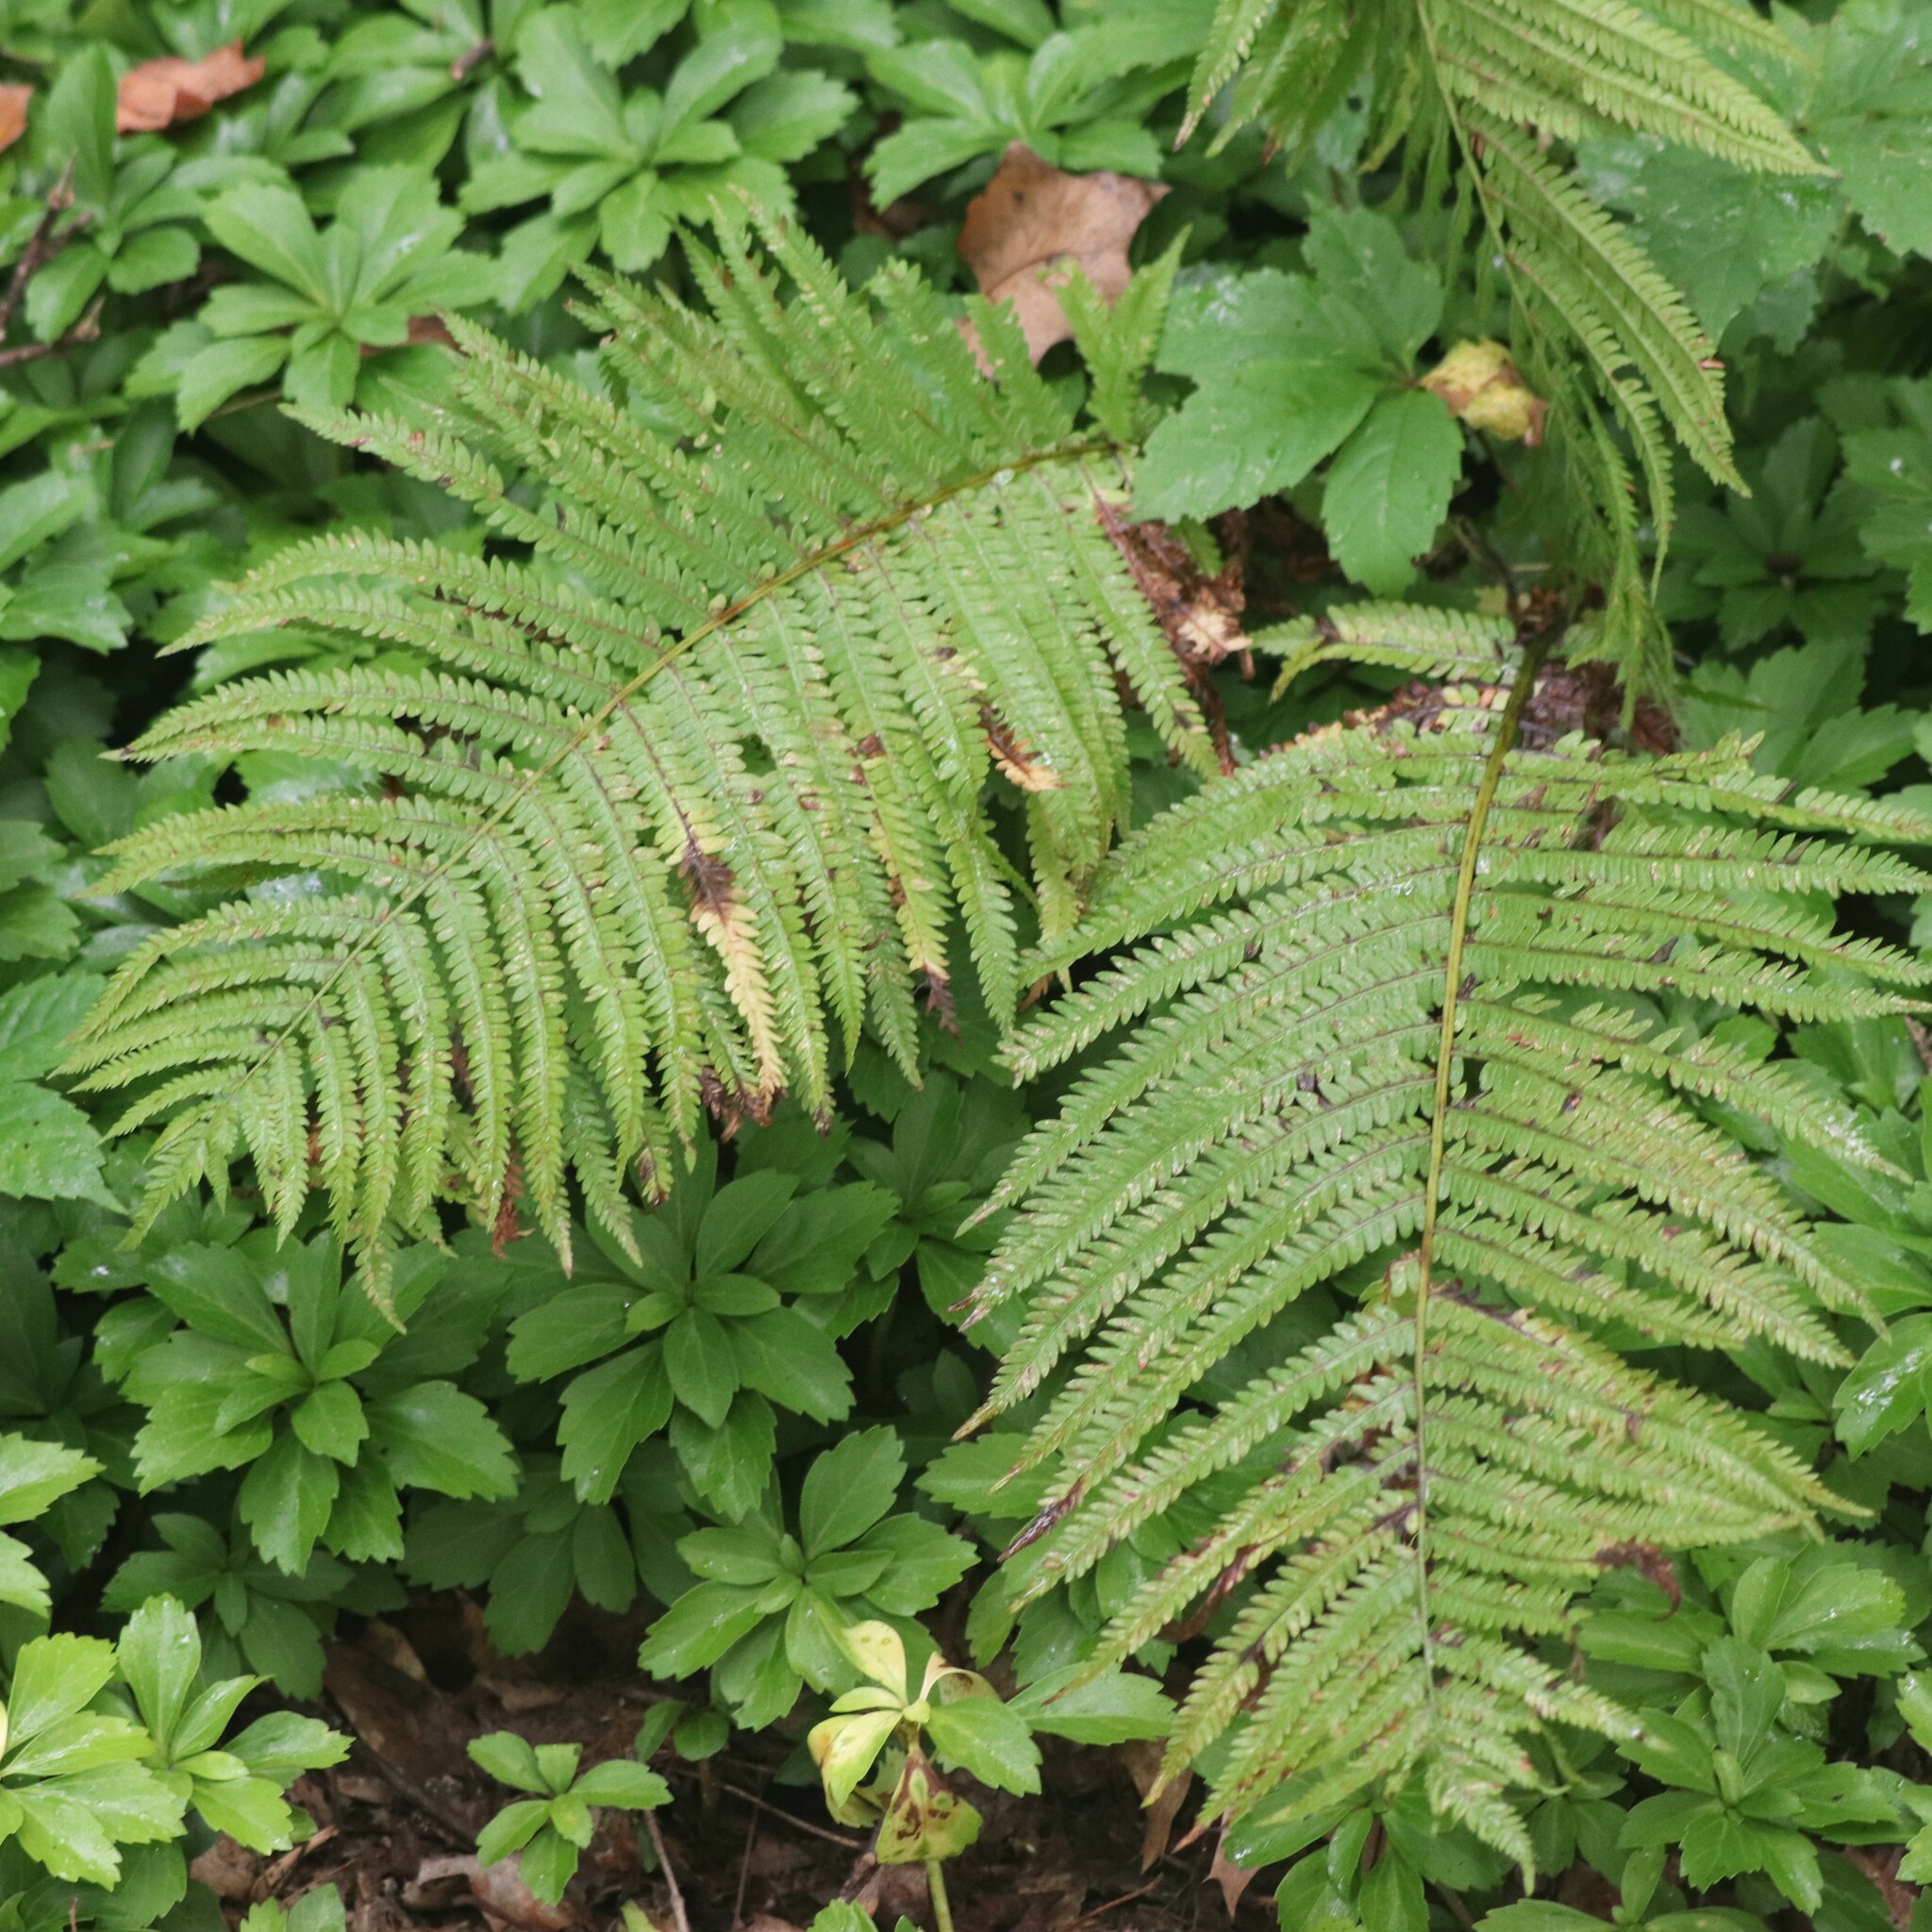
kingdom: Plantae
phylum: Tracheophyta
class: Polypodiopsida
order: Polypodiales
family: Onocleaceae
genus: Matteuccia
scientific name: Matteuccia struthiopteris
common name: Ostrich fern
